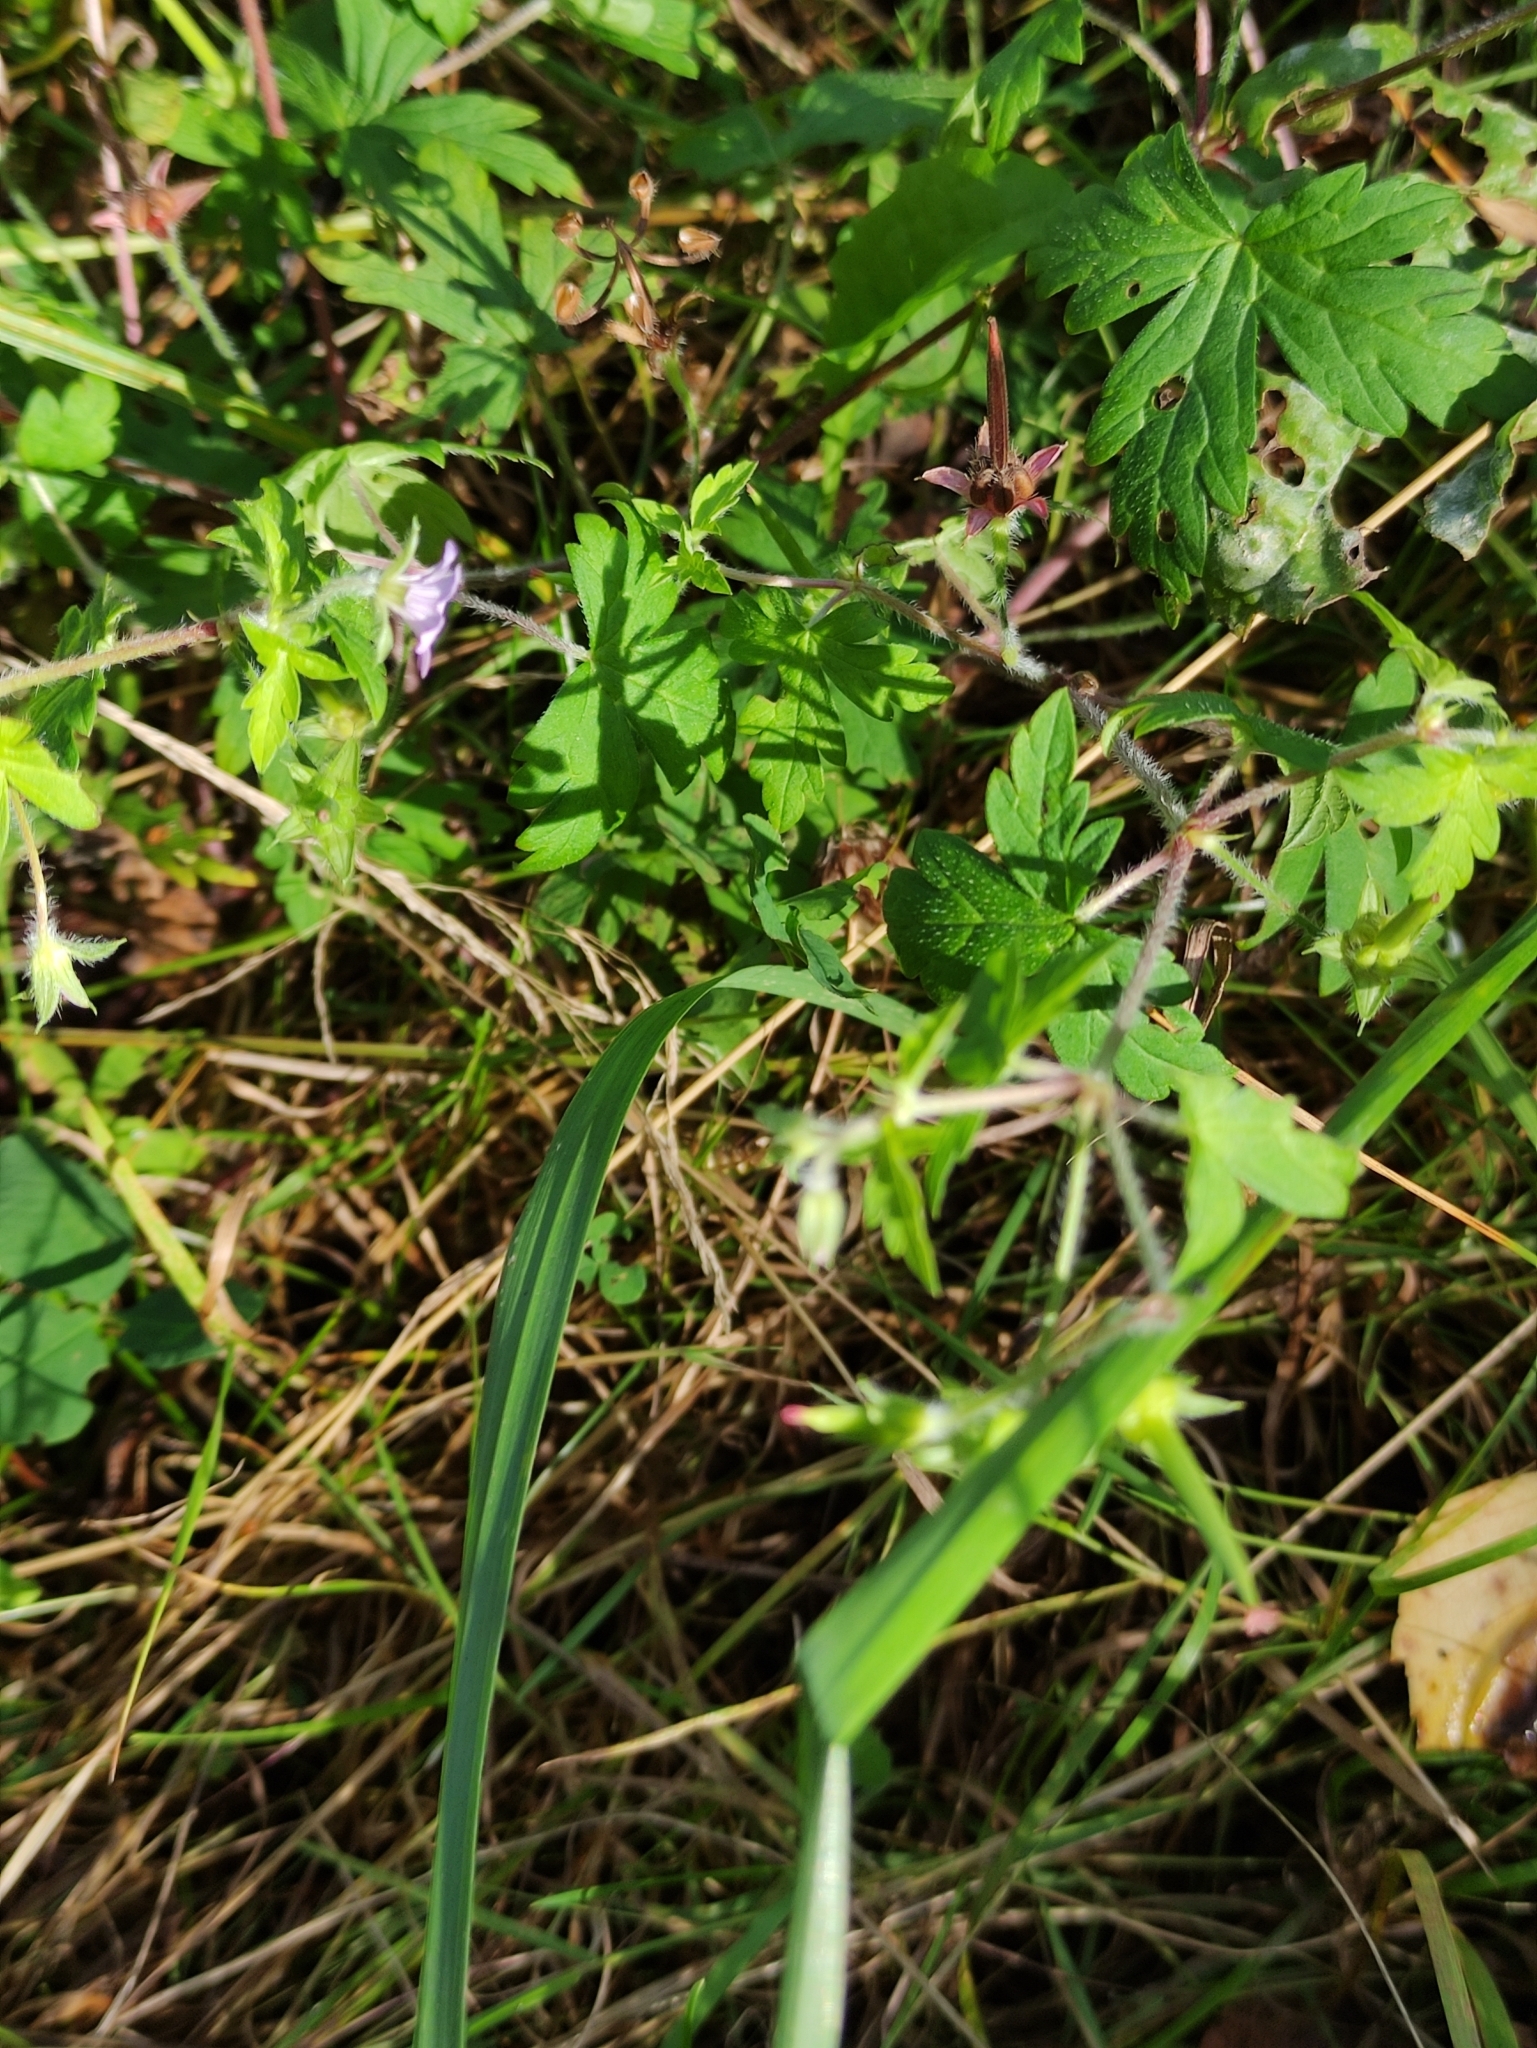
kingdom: Plantae
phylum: Tracheophyta
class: Magnoliopsida
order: Geraniales
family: Geraniaceae
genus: Geranium
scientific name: Geranium sibiricum
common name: Siberian crane's-bill
